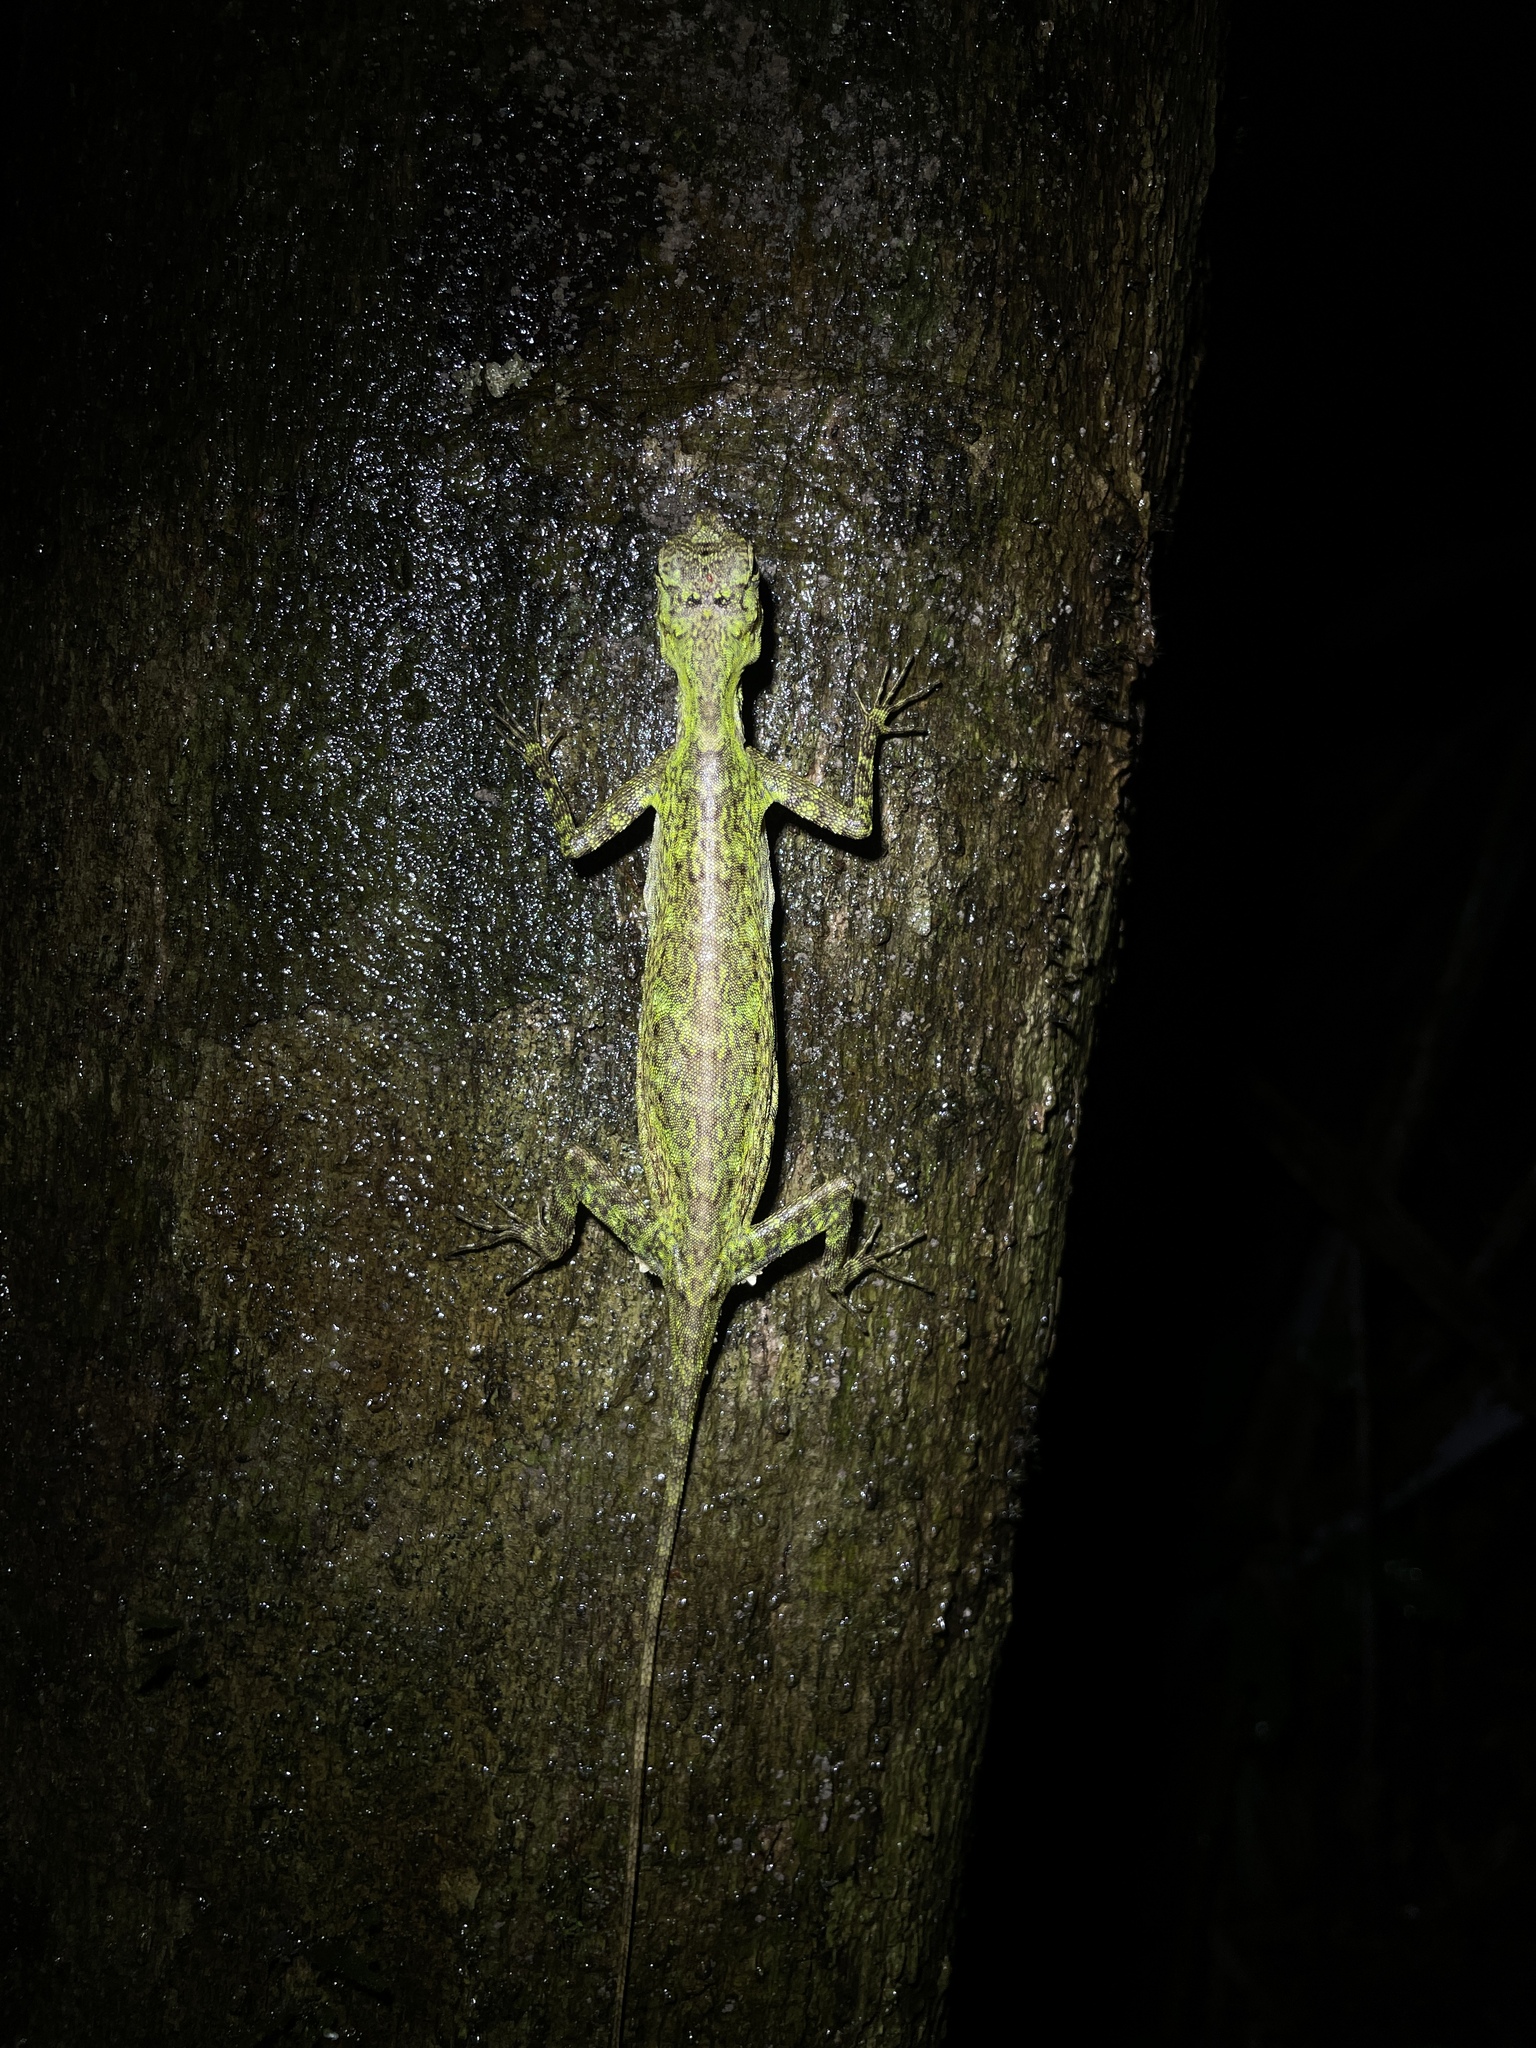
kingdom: Animalia
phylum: Chordata
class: Squamata
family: Agamidae
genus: Draco
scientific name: Draco blanfordii
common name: Blanford's flying dragon
